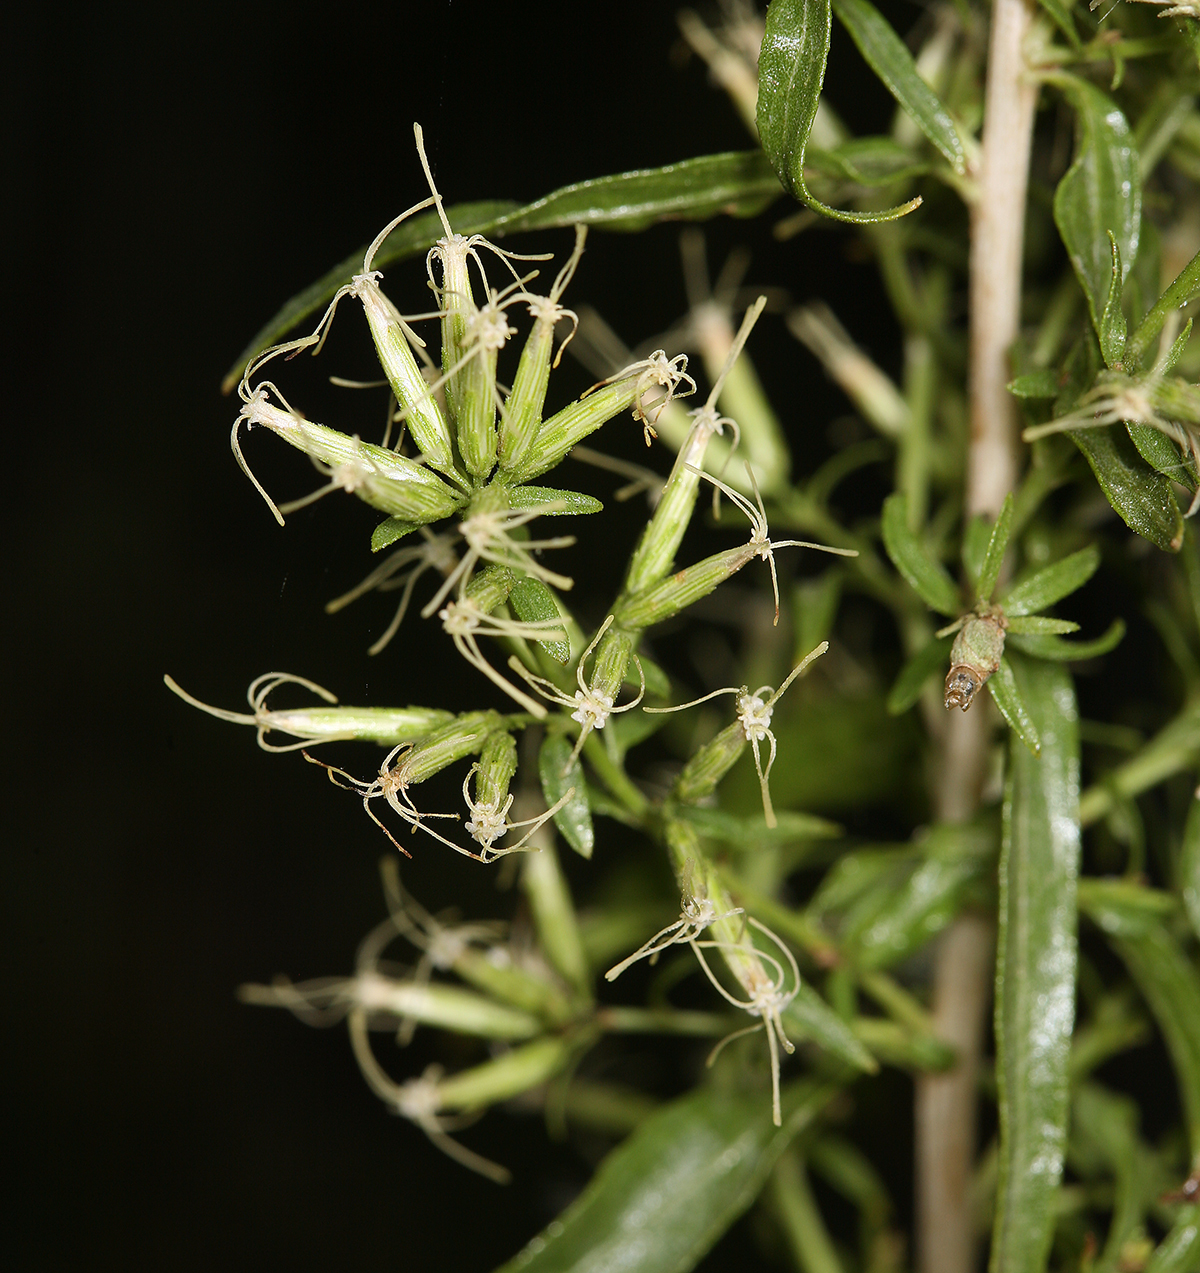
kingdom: Plantae
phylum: Tracheophyta
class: Magnoliopsida
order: Asterales
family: Asteraceae
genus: Brickellia
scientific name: Brickellia longifolia
